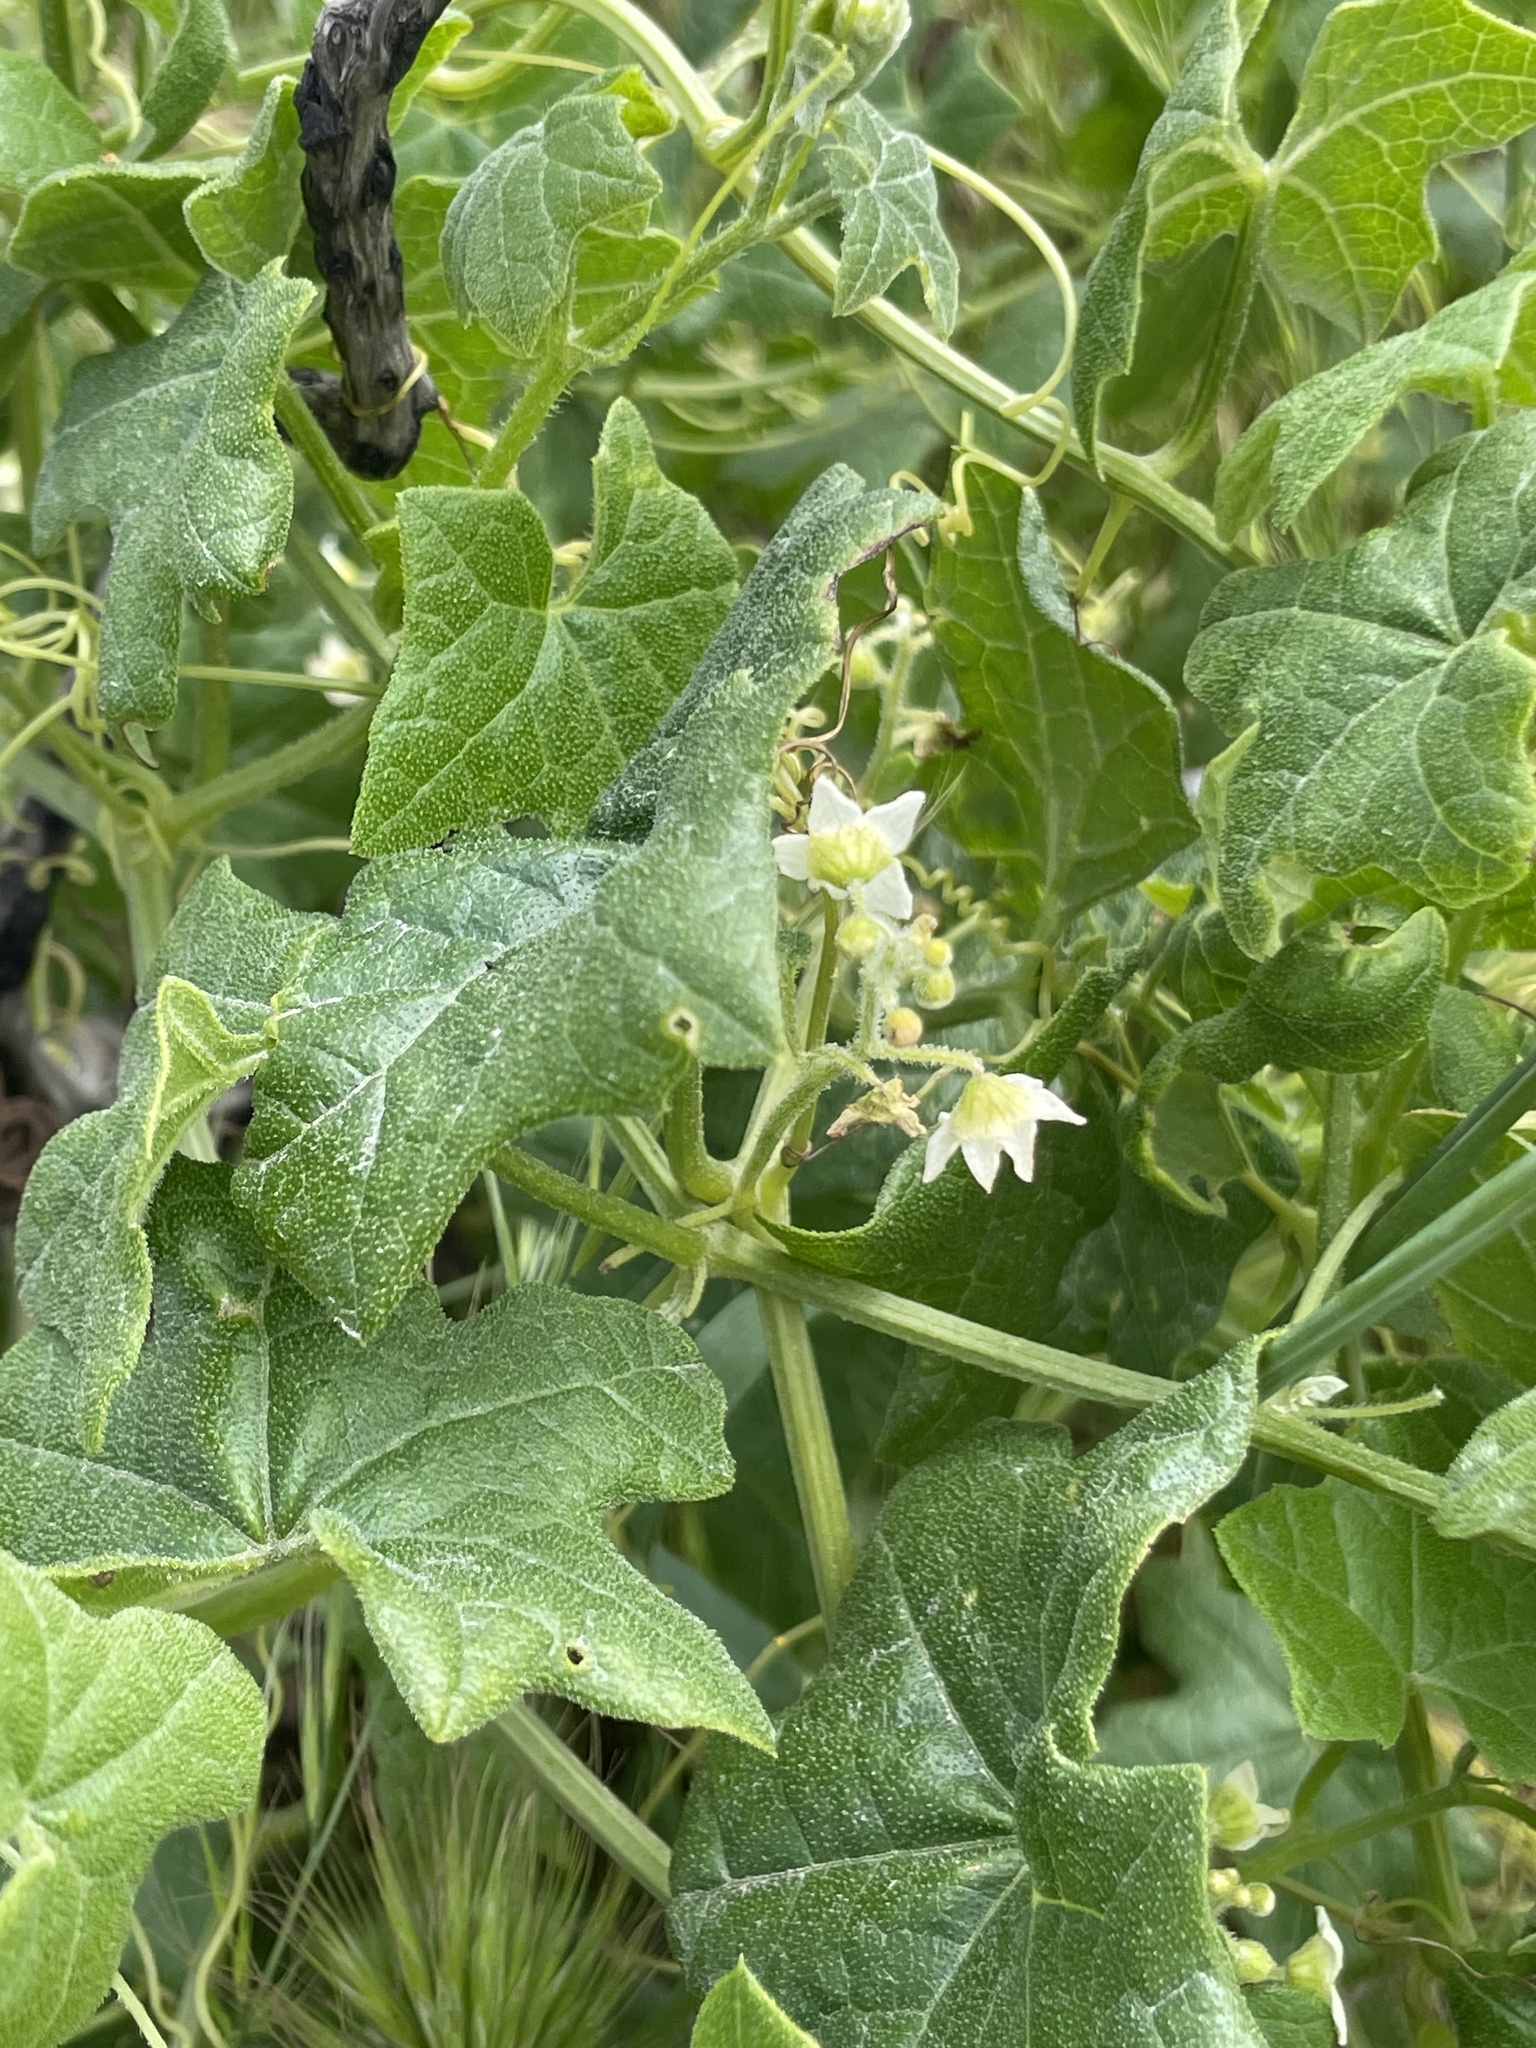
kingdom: Plantae
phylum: Tracheophyta
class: Magnoliopsida
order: Cucurbitales
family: Cucurbitaceae
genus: Marah
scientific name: Marah macrocarpa
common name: Cucamonga manroot
